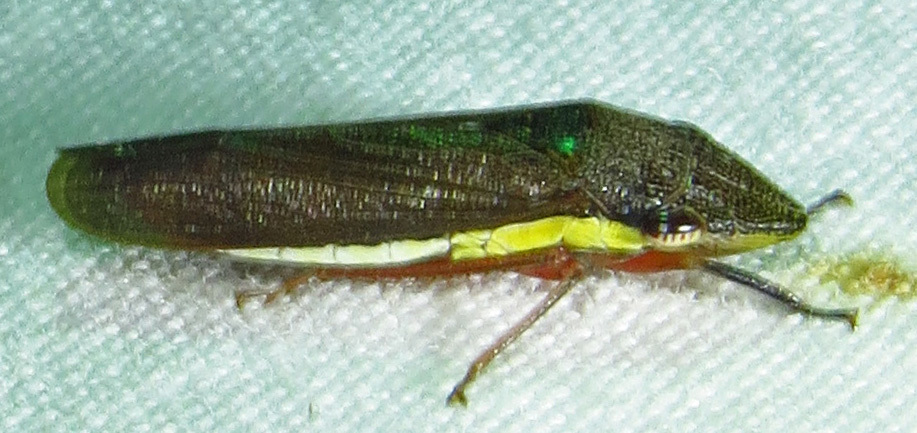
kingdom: Animalia
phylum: Arthropoda
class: Insecta
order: Hemiptera
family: Cicadellidae
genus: Homalodisca
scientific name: Homalodisca insolita
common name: Johnson grass sharpshooter
